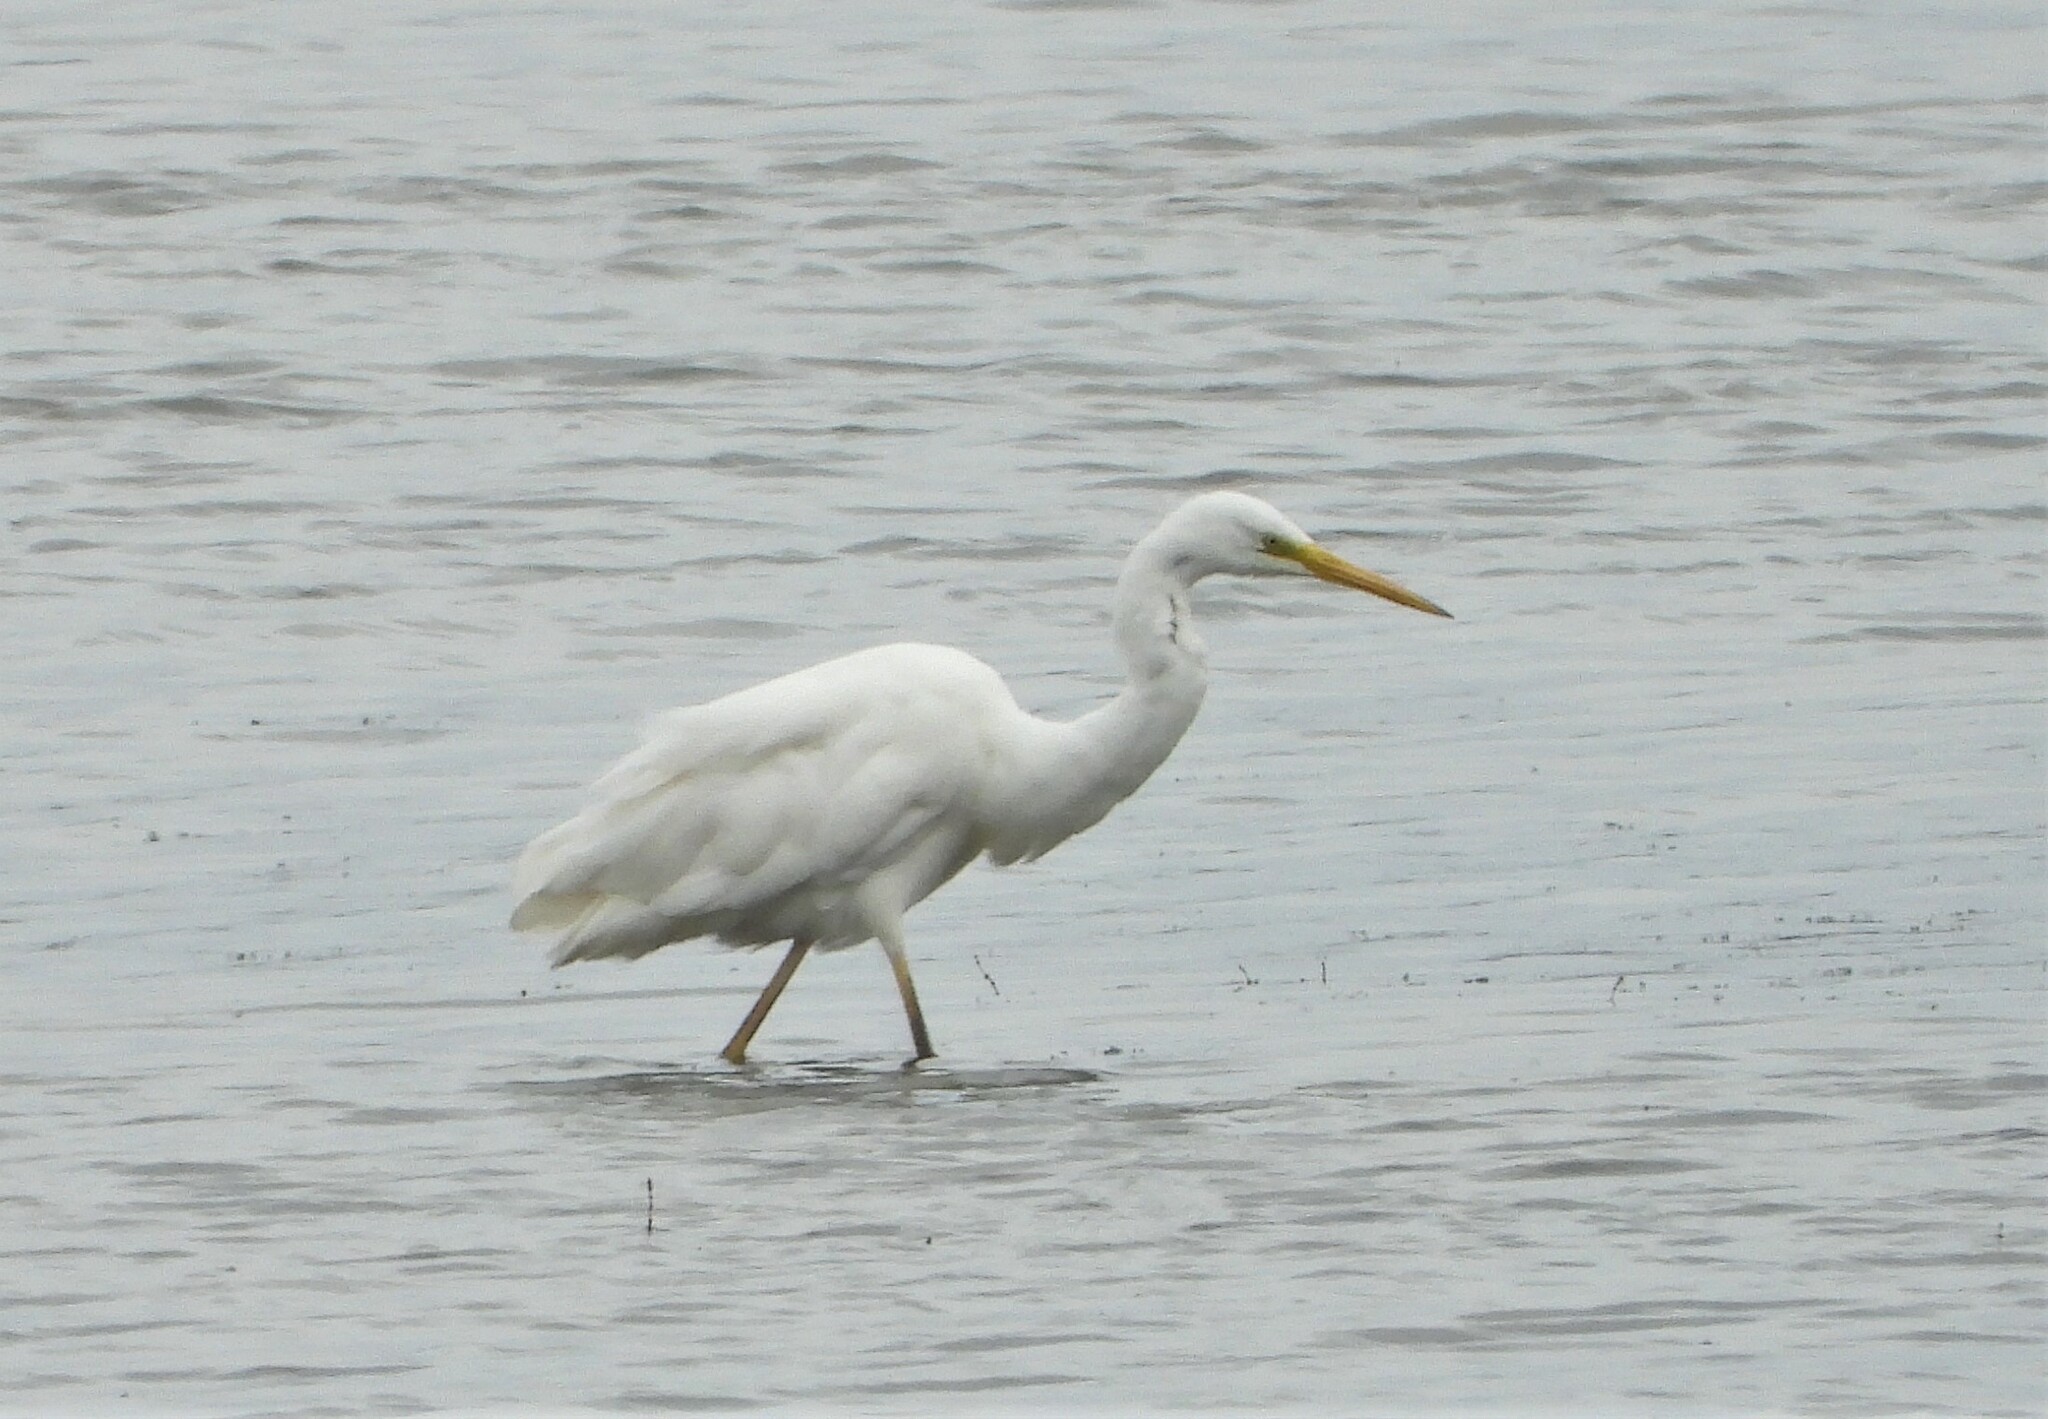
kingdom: Animalia
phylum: Chordata
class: Aves
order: Pelecaniformes
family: Ardeidae
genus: Ardea
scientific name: Ardea alba
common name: Great egret
